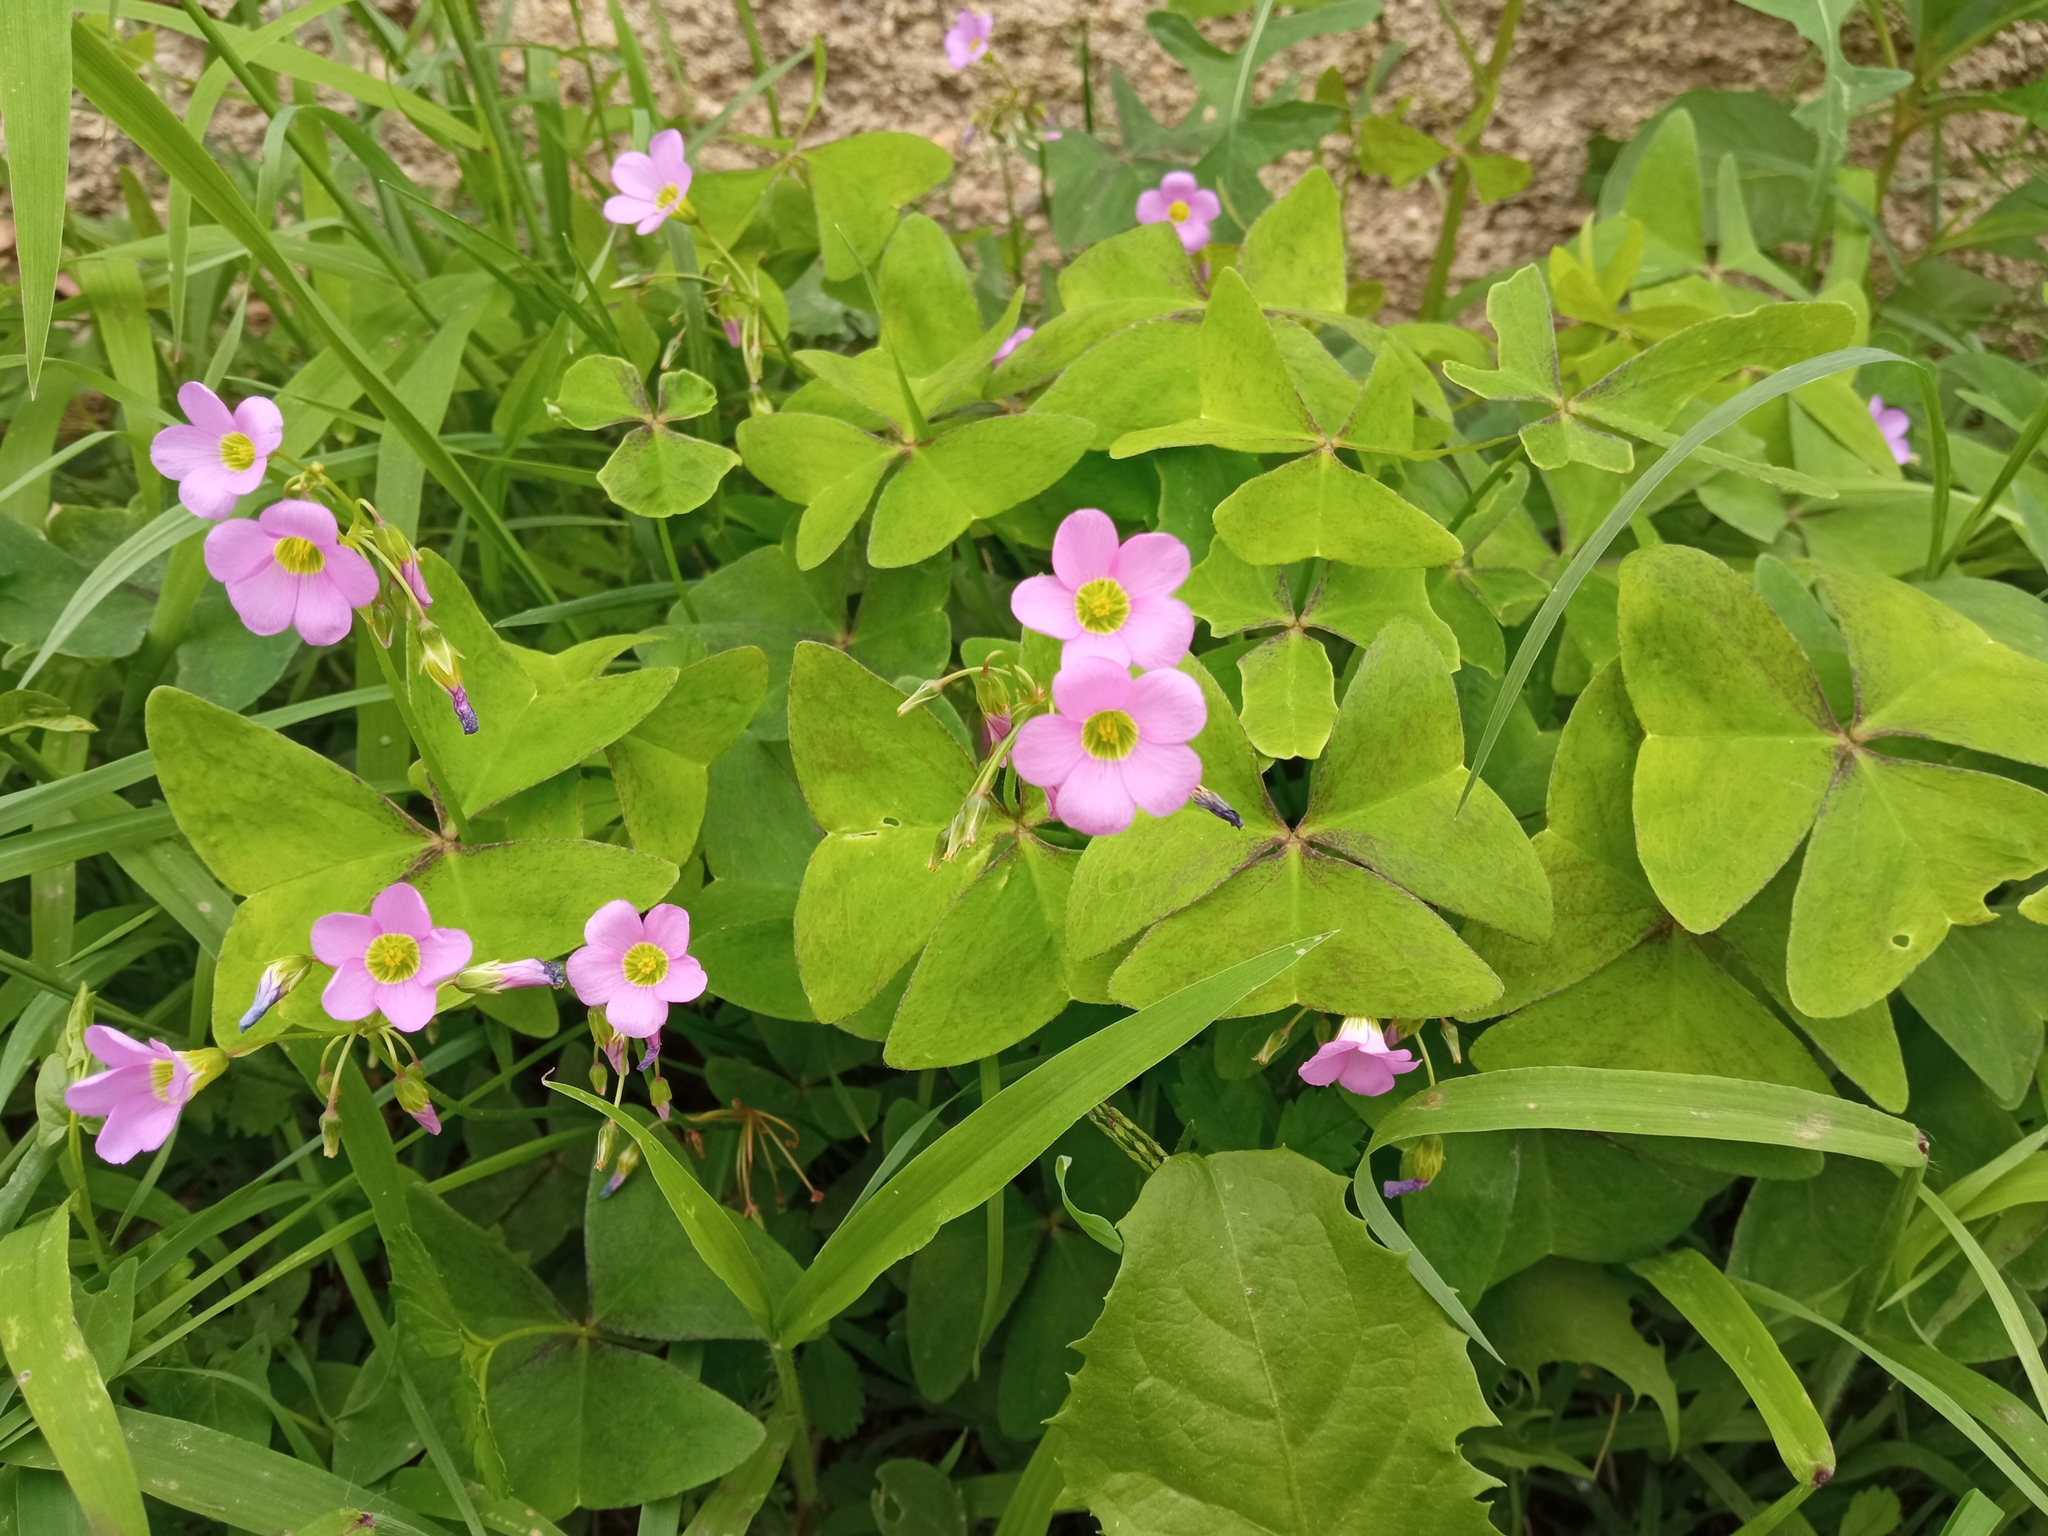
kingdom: Plantae
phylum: Tracheophyta
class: Magnoliopsida
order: Oxalidales
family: Oxalidaceae
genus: Oxalis
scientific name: Oxalis latifolia
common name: Garden pink-sorrel
